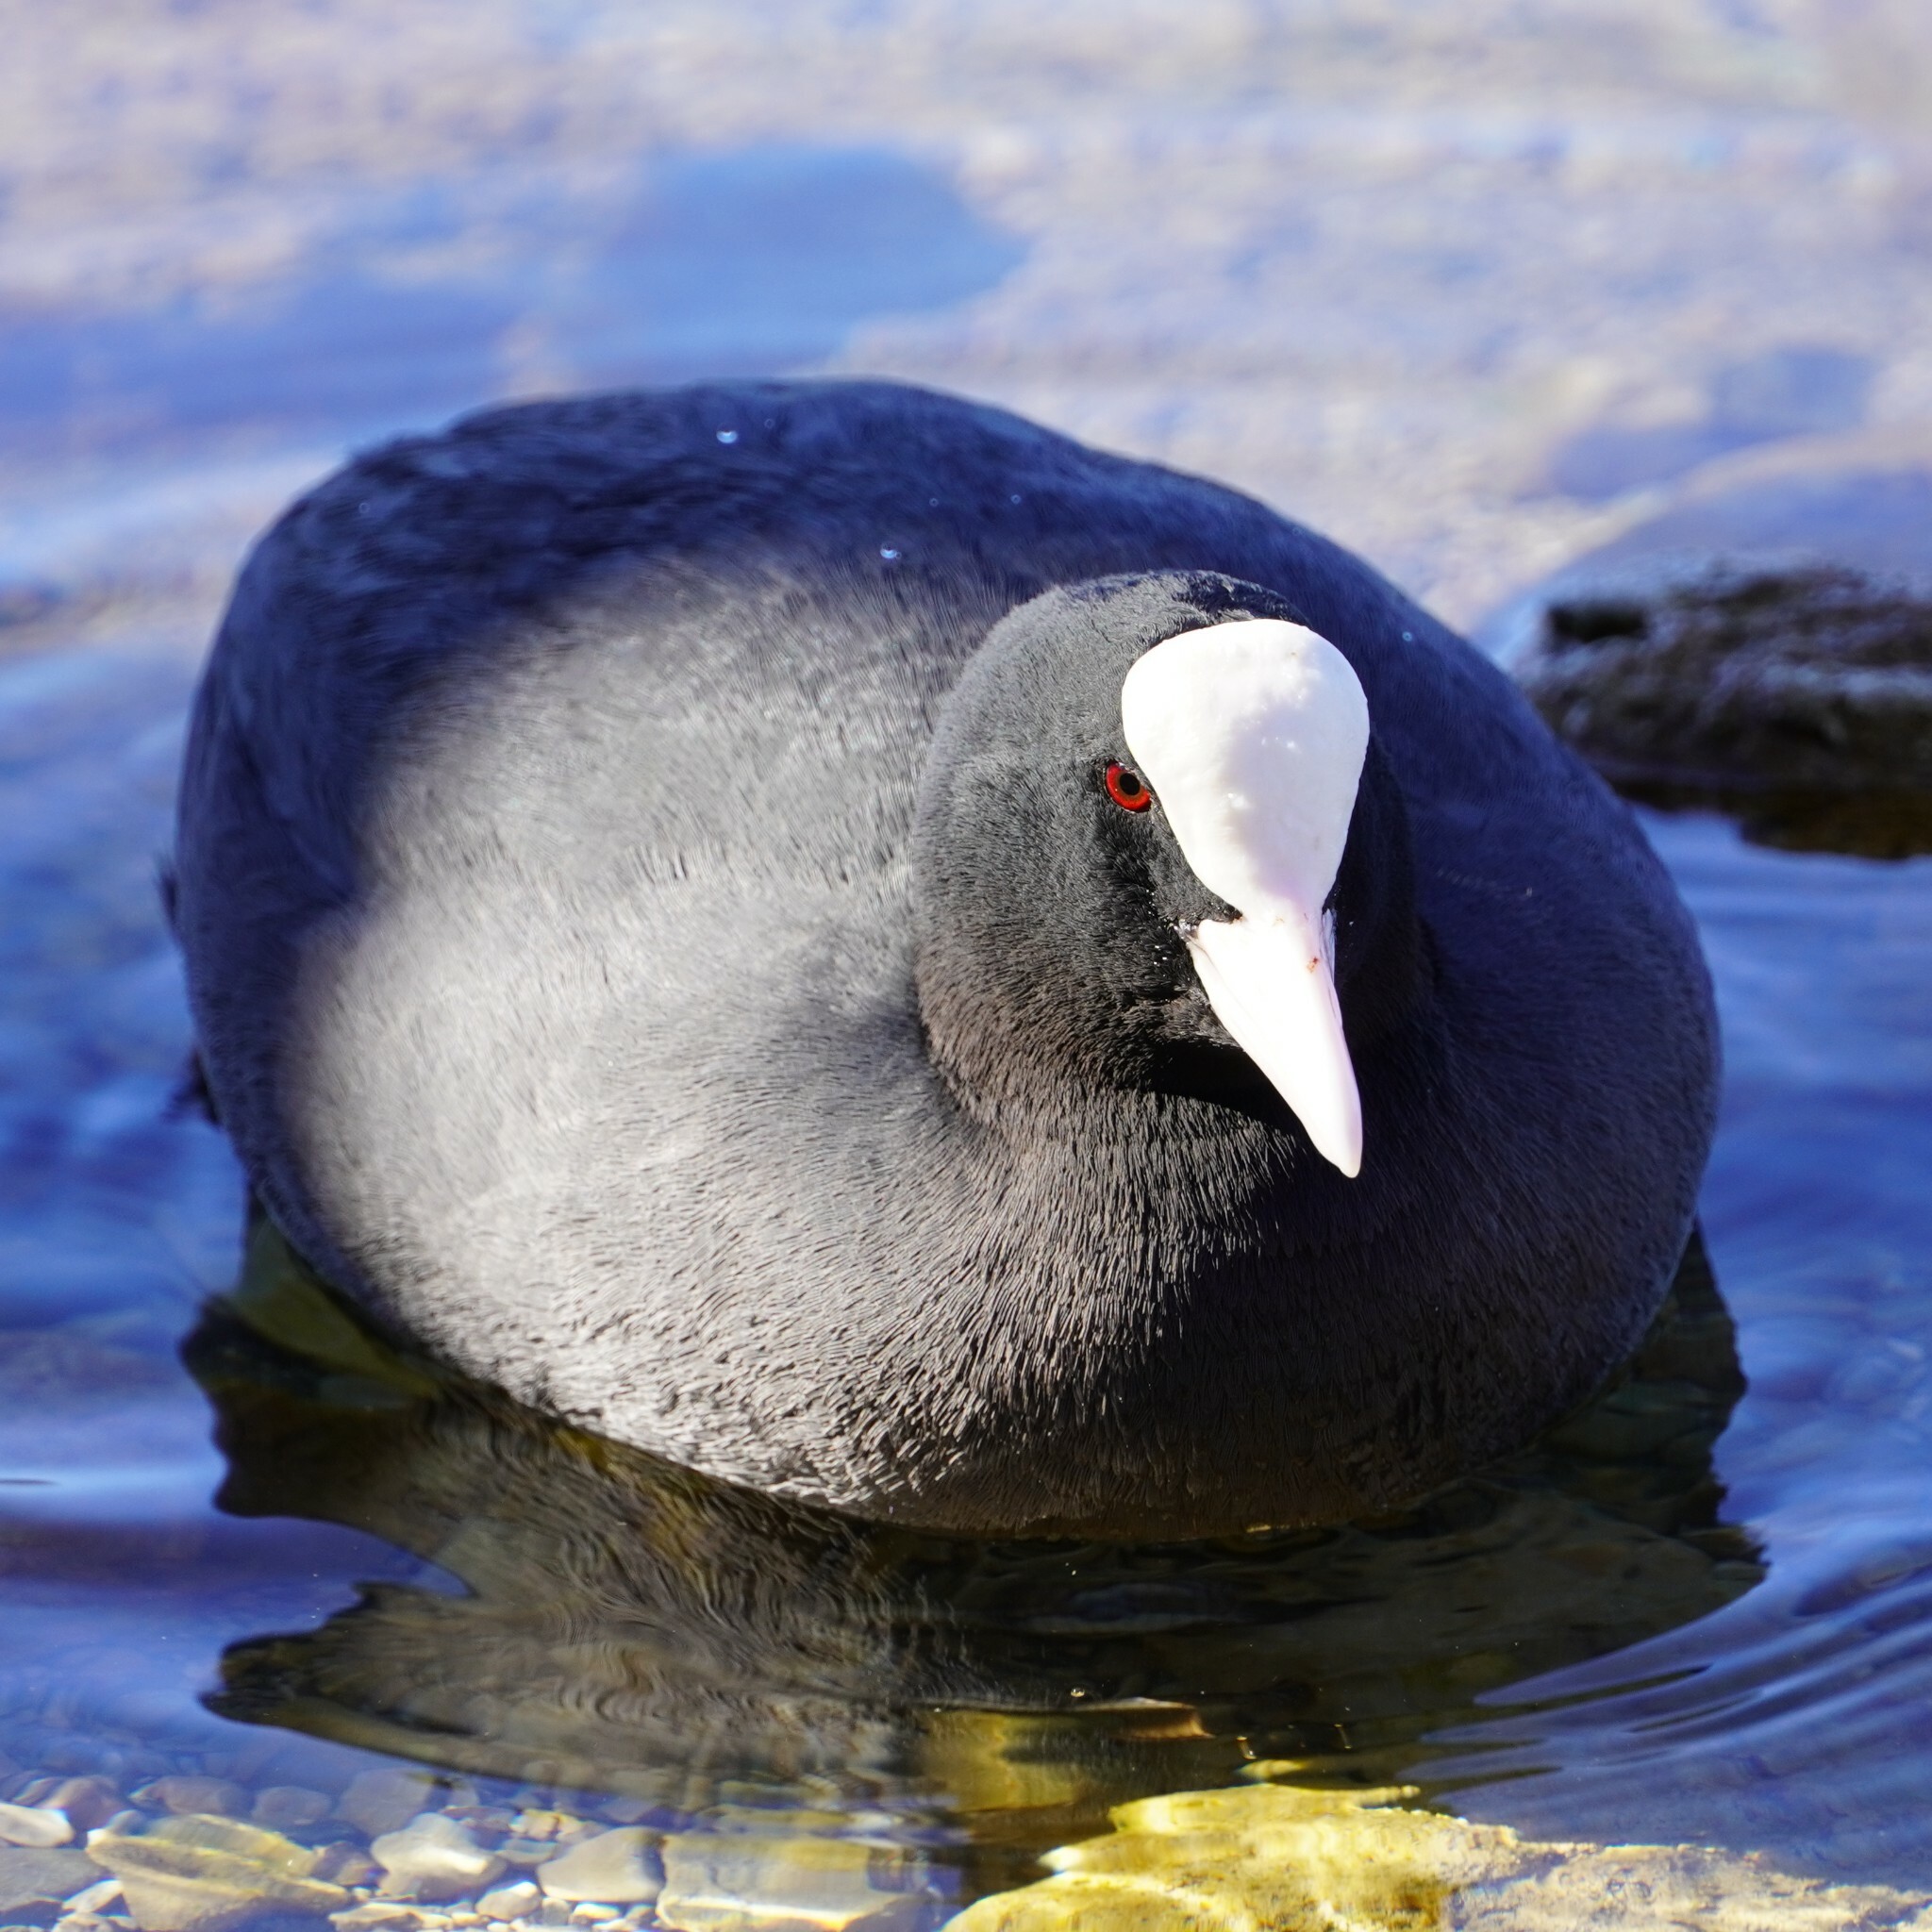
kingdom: Animalia
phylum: Chordata
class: Aves
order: Gruiformes
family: Rallidae
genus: Fulica
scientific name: Fulica atra
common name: Eurasian coot
